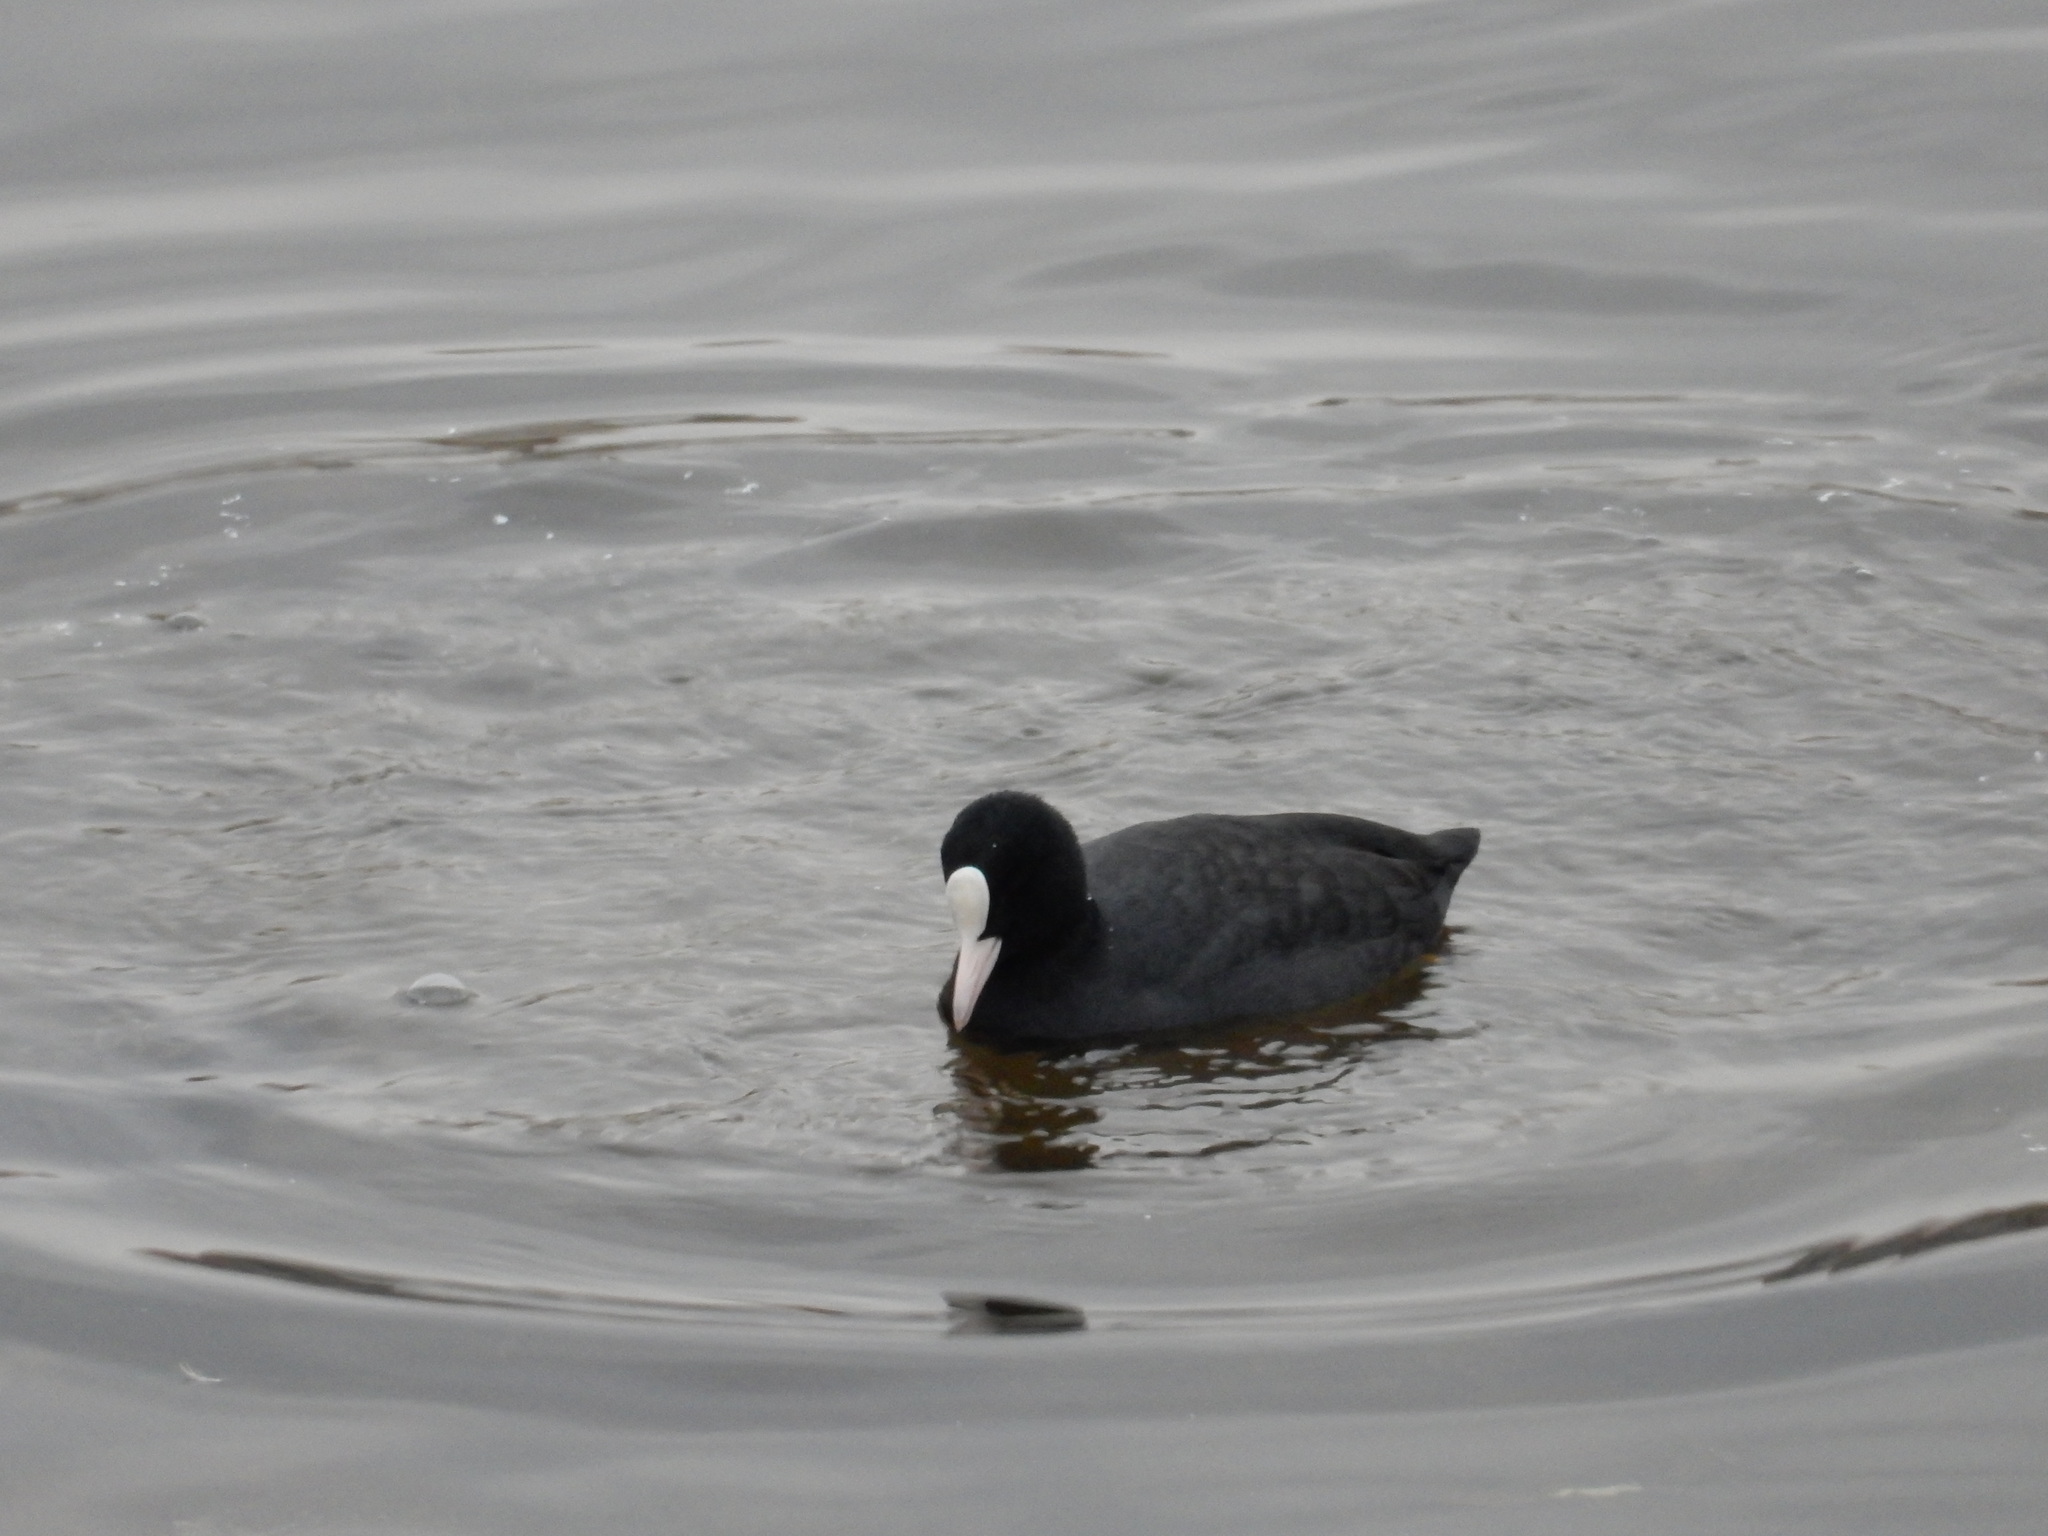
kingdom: Animalia
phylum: Chordata
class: Aves
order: Gruiformes
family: Rallidae
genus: Fulica
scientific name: Fulica atra
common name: Eurasian coot
